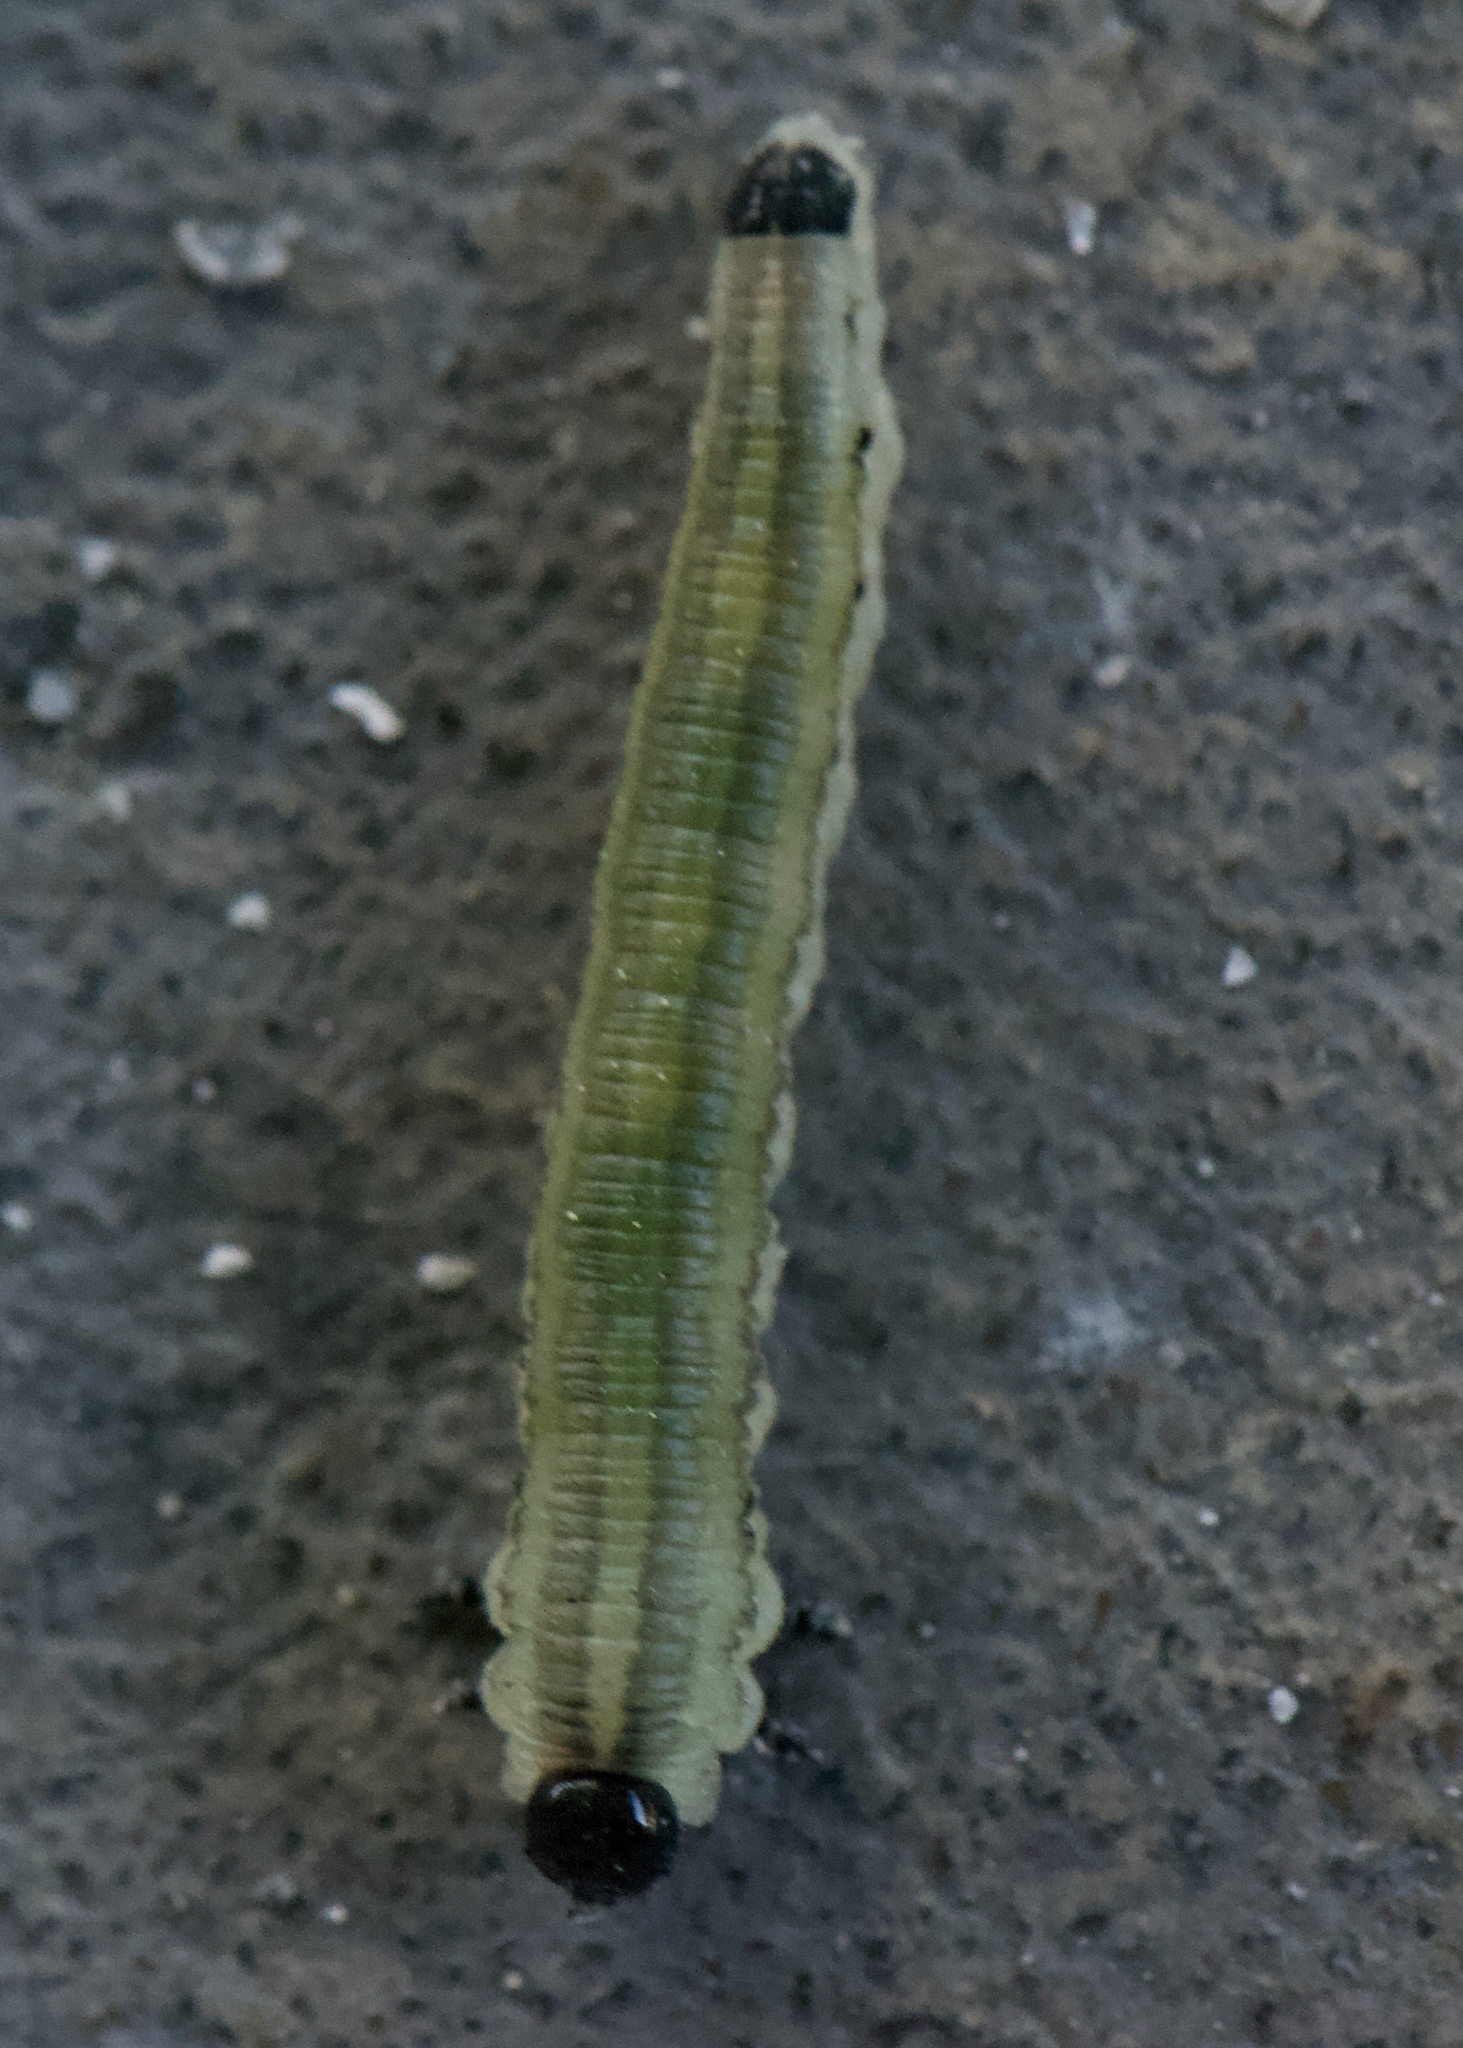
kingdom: Animalia
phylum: Arthropoda
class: Insecta
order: Hymenoptera
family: Diprionidae
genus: Neodiprion
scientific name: Neodiprion excitans
